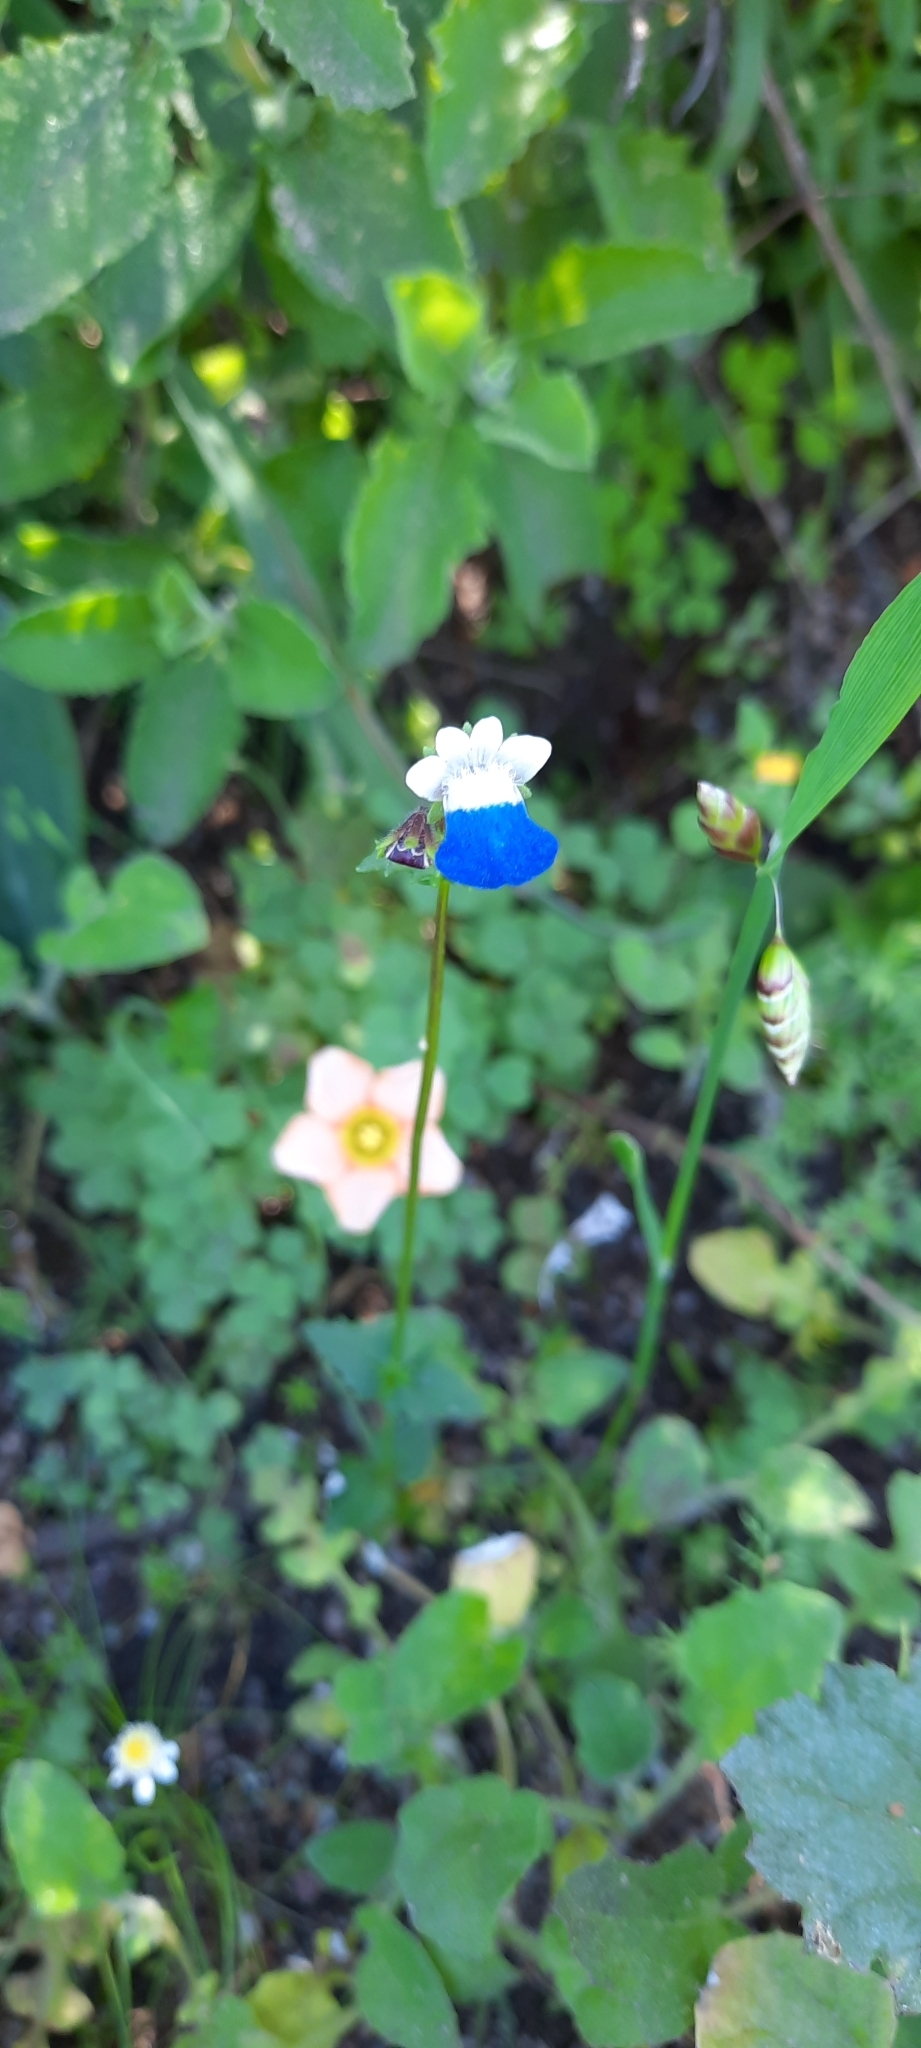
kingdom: Plantae
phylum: Tracheophyta
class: Magnoliopsida
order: Lamiales
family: Scrophulariaceae
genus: Nemesia
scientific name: Nemesia barbata
